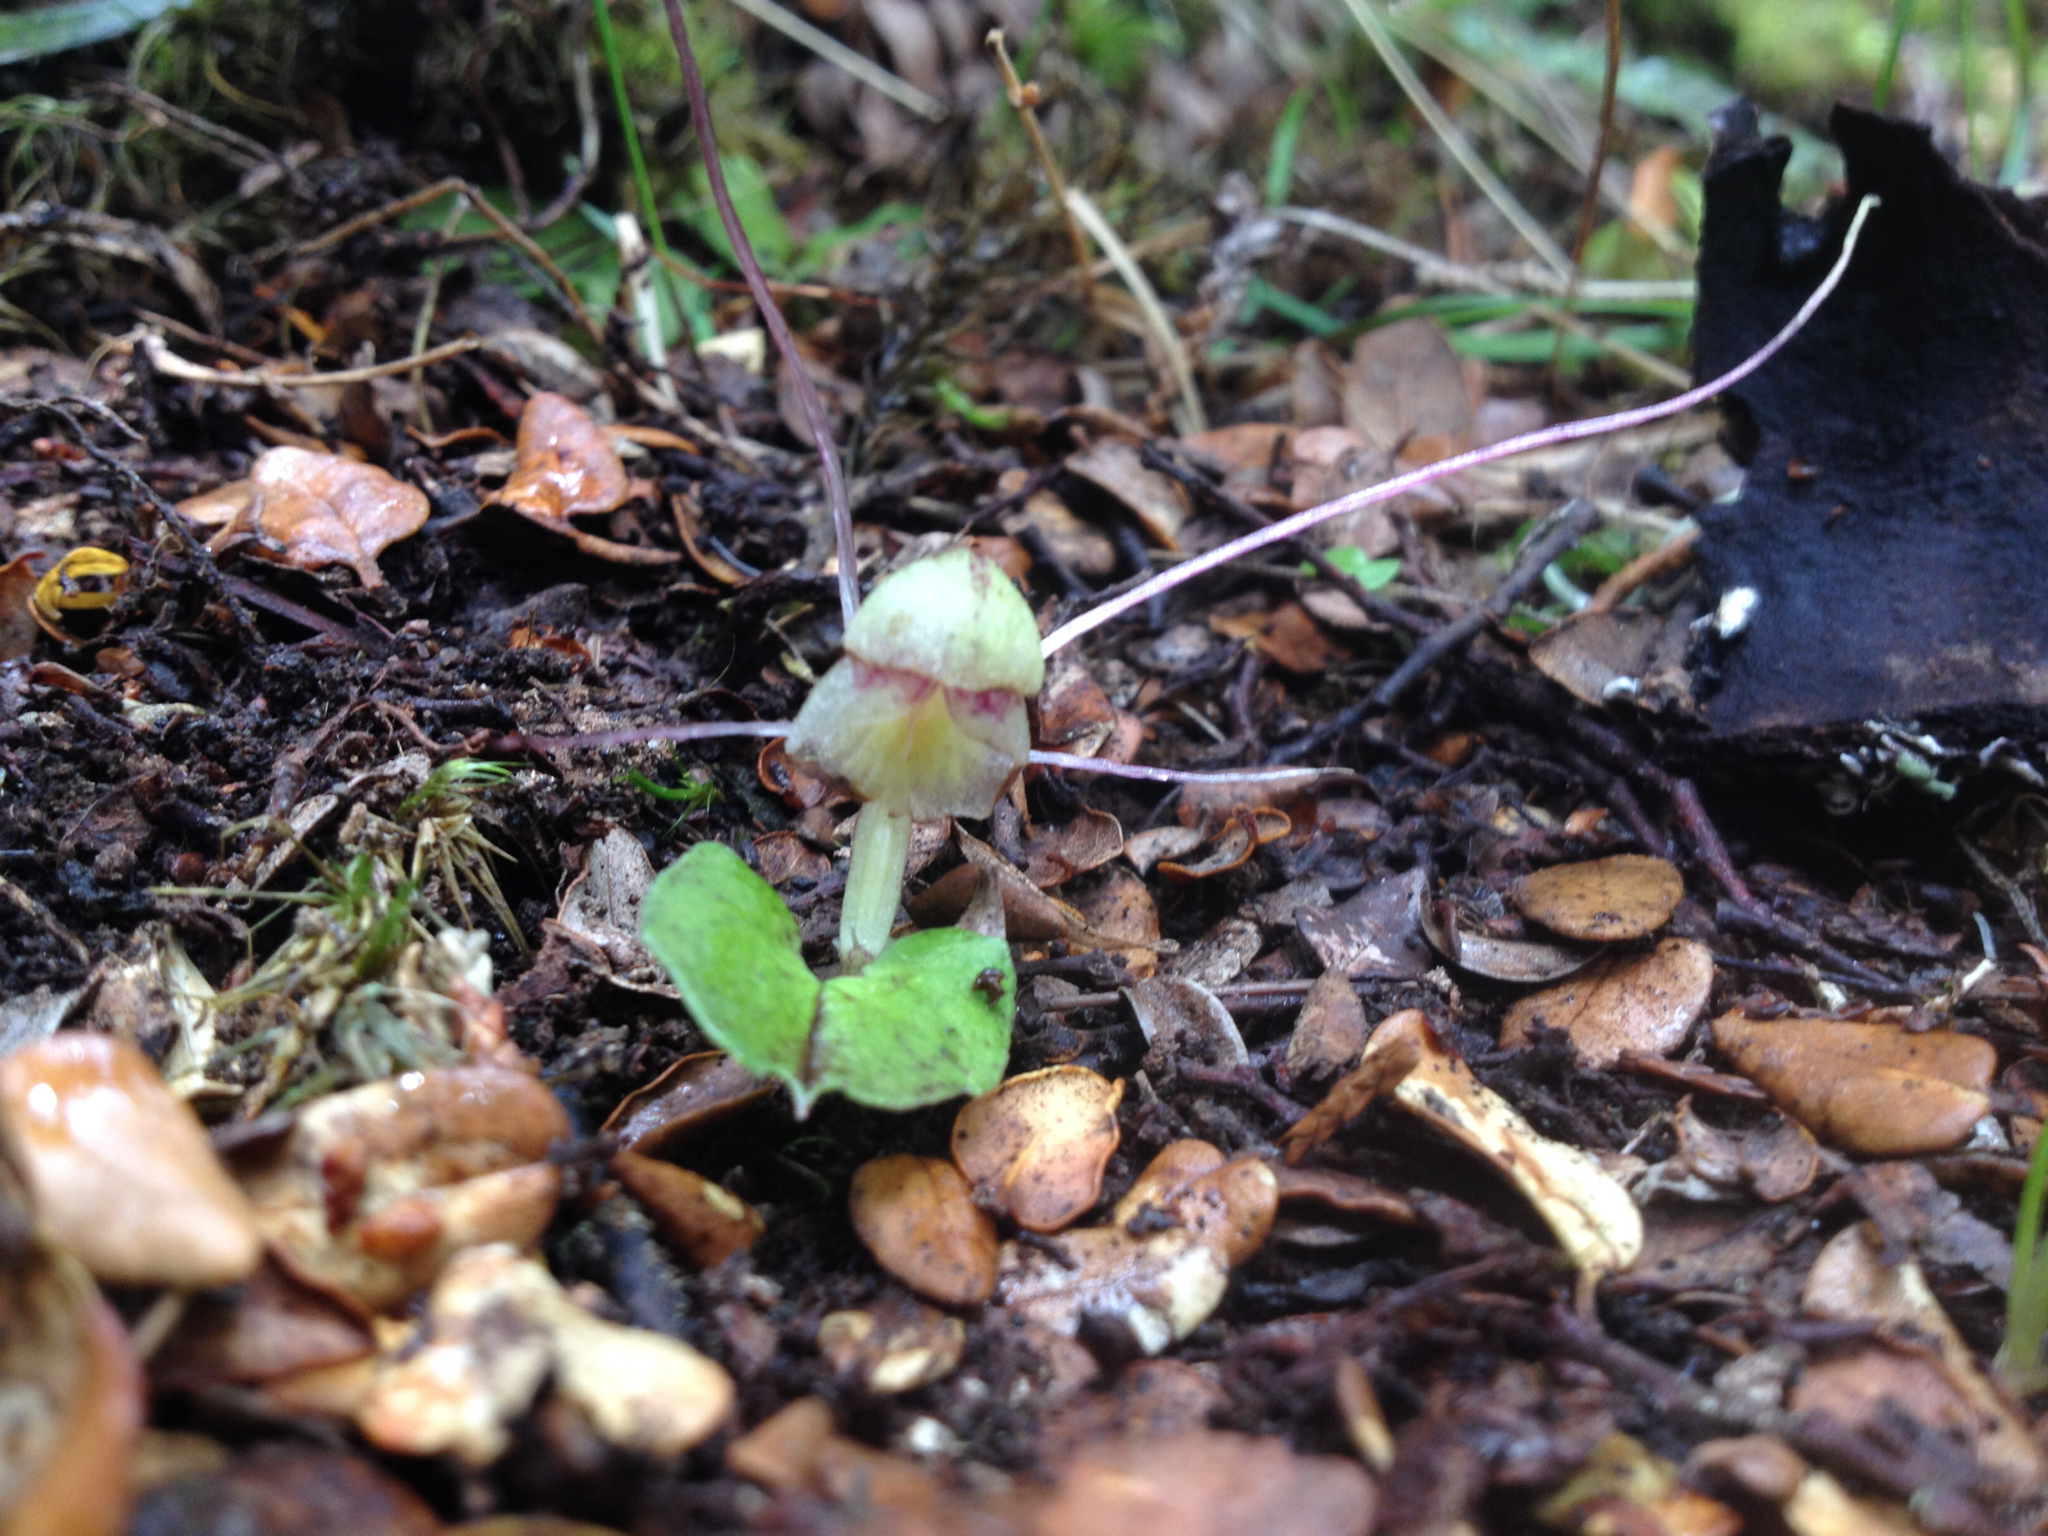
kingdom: Plantae
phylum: Tracheophyta
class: Liliopsida
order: Asparagales
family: Orchidaceae
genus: Corybas
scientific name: Corybas walliae
